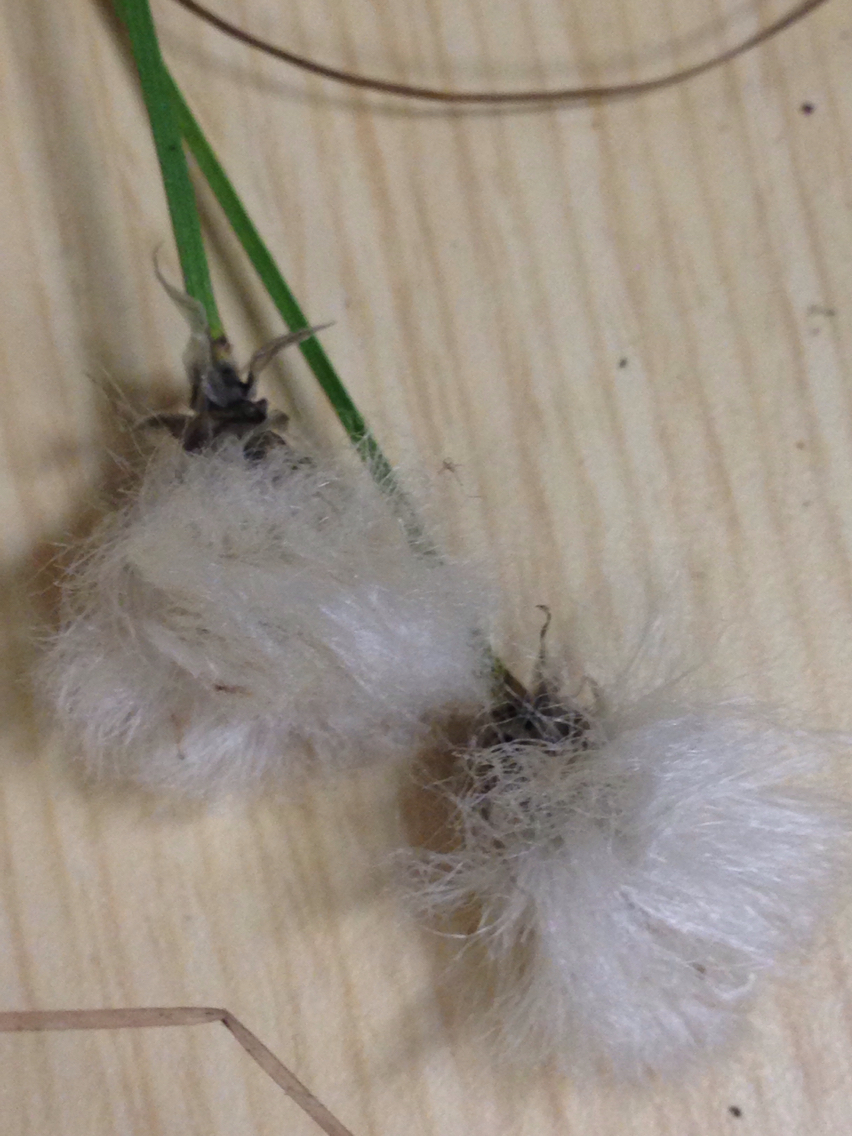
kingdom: Plantae
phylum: Tracheophyta
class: Liliopsida
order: Poales
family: Cyperaceae
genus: Eriophorum
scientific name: Eriophorum vaginatum
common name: Hare's-tail cottongrass
